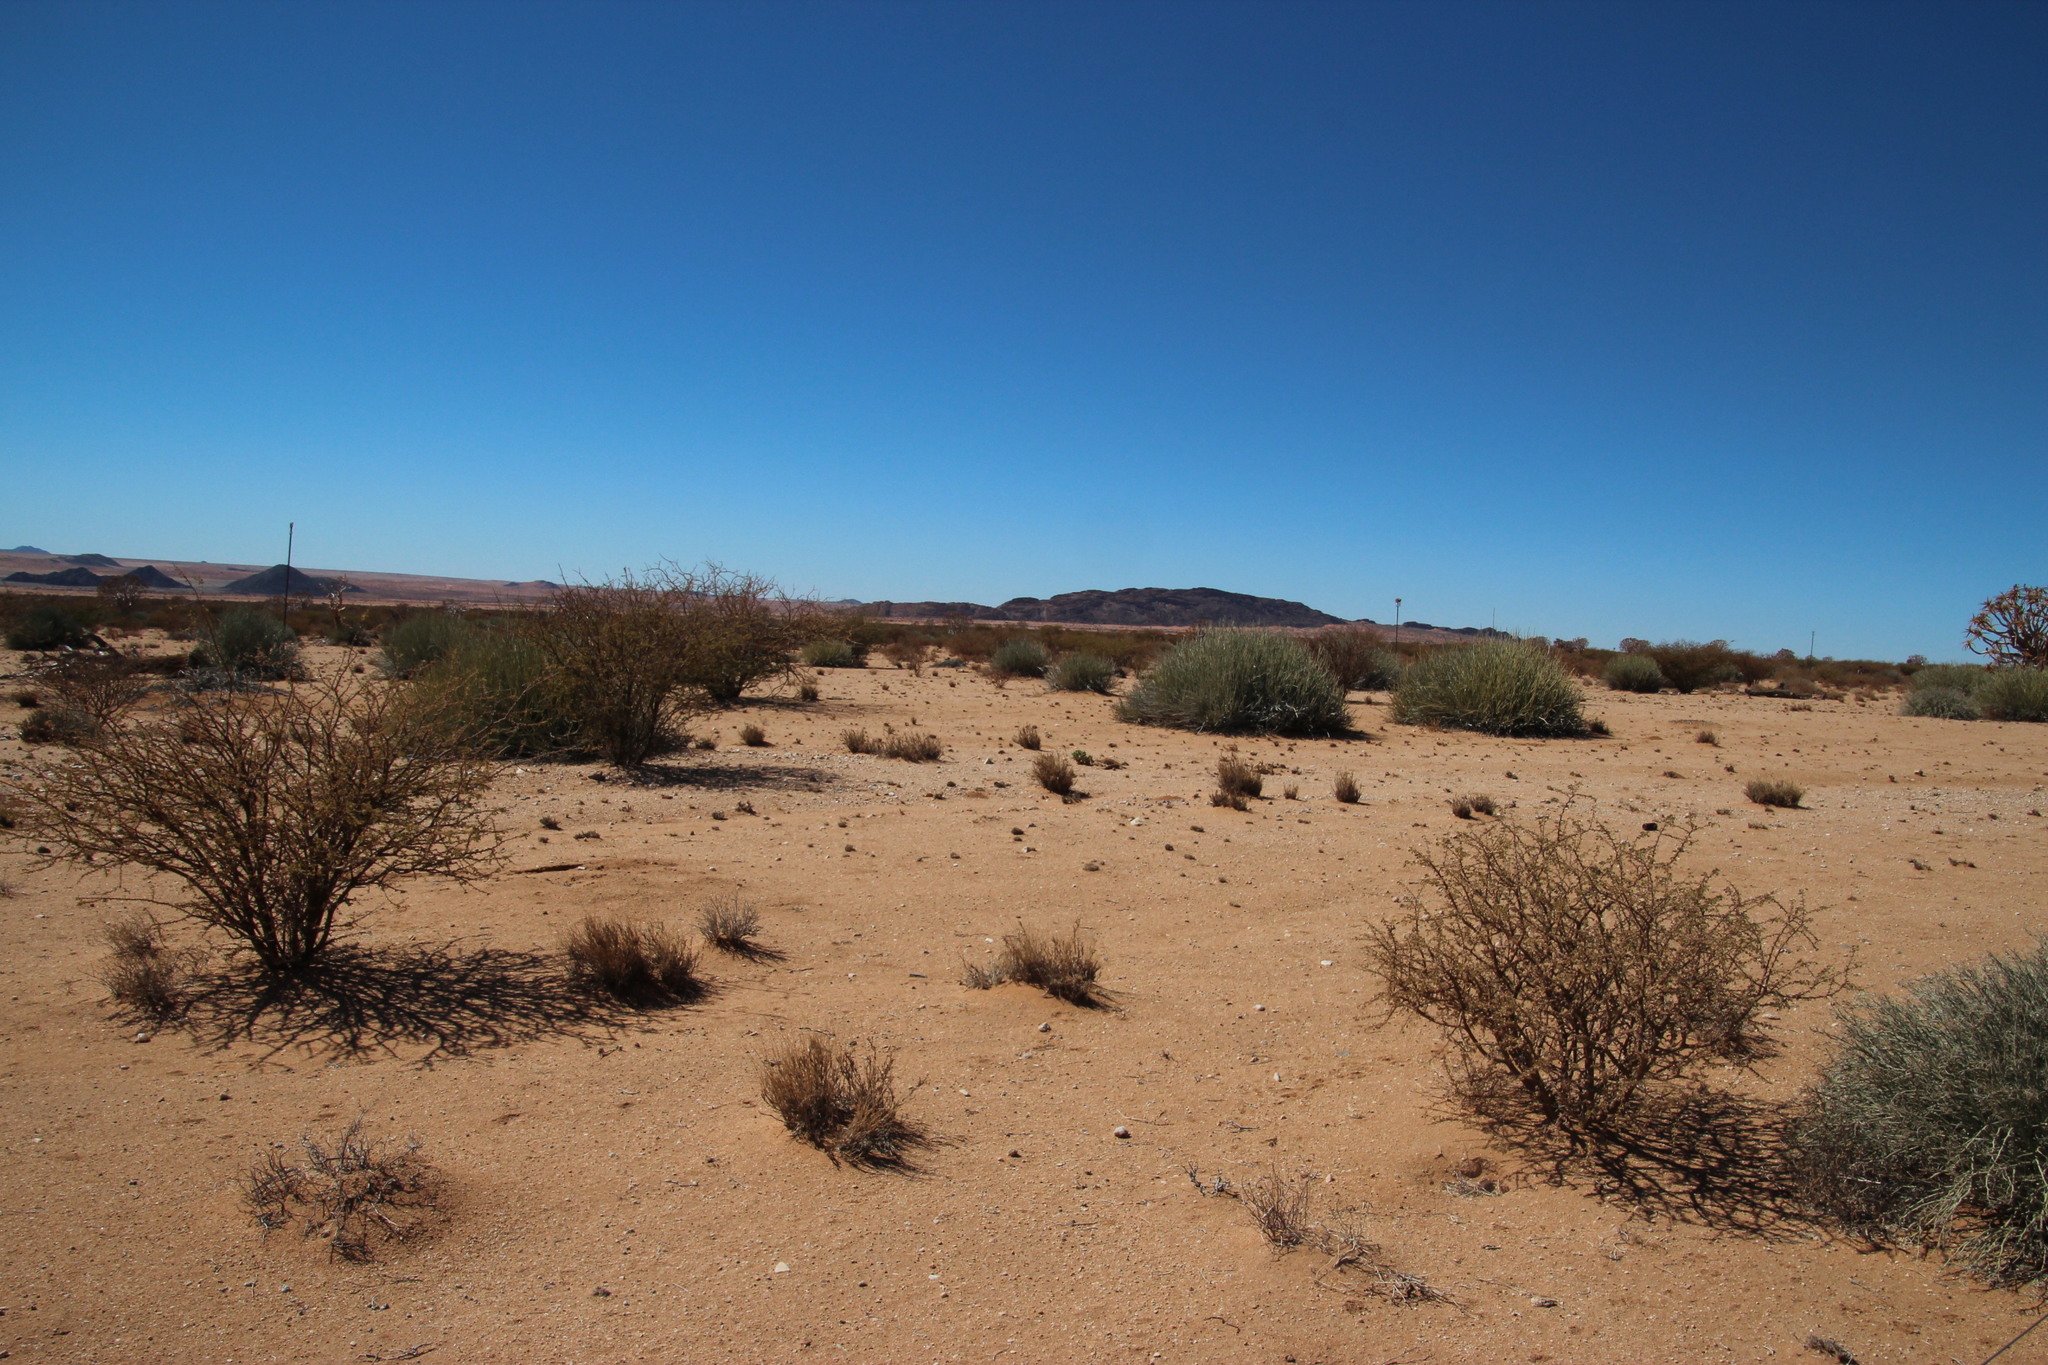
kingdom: Plantae
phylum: Tracheophyta
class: Magnoliopsida
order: Malpighiales
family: Euphorbiaceae
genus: Euphorbia
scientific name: Euphorbia gregaria
